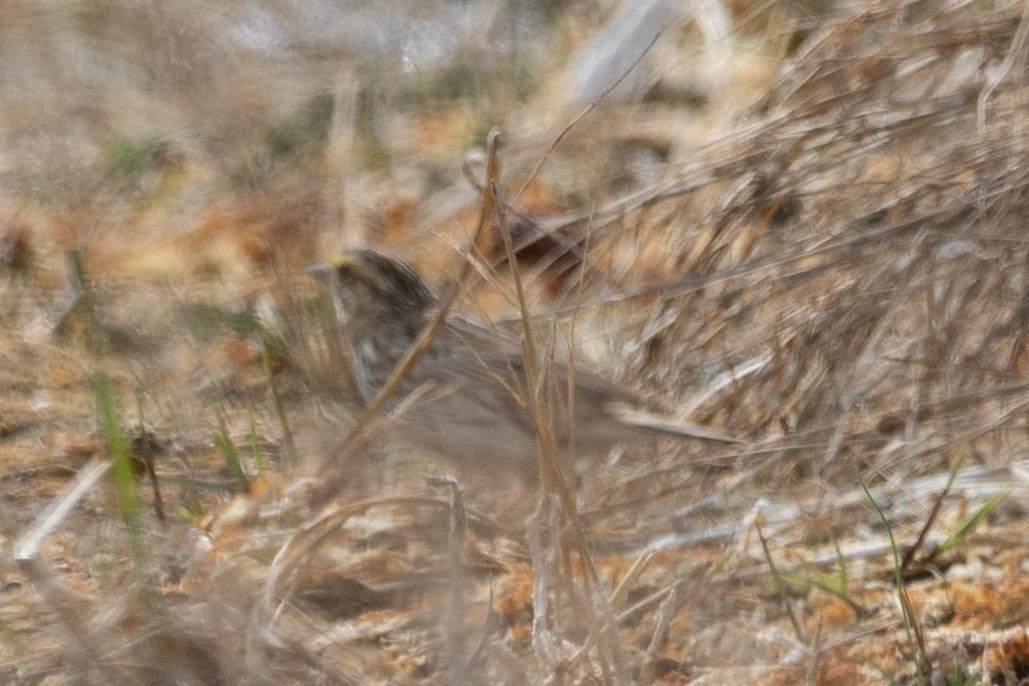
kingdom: Animalia
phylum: Chordata
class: Aves
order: Passeriformes
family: Passerellidae
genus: Passerculus
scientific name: Passerculus sandwichensis
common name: Savannah sparrow
